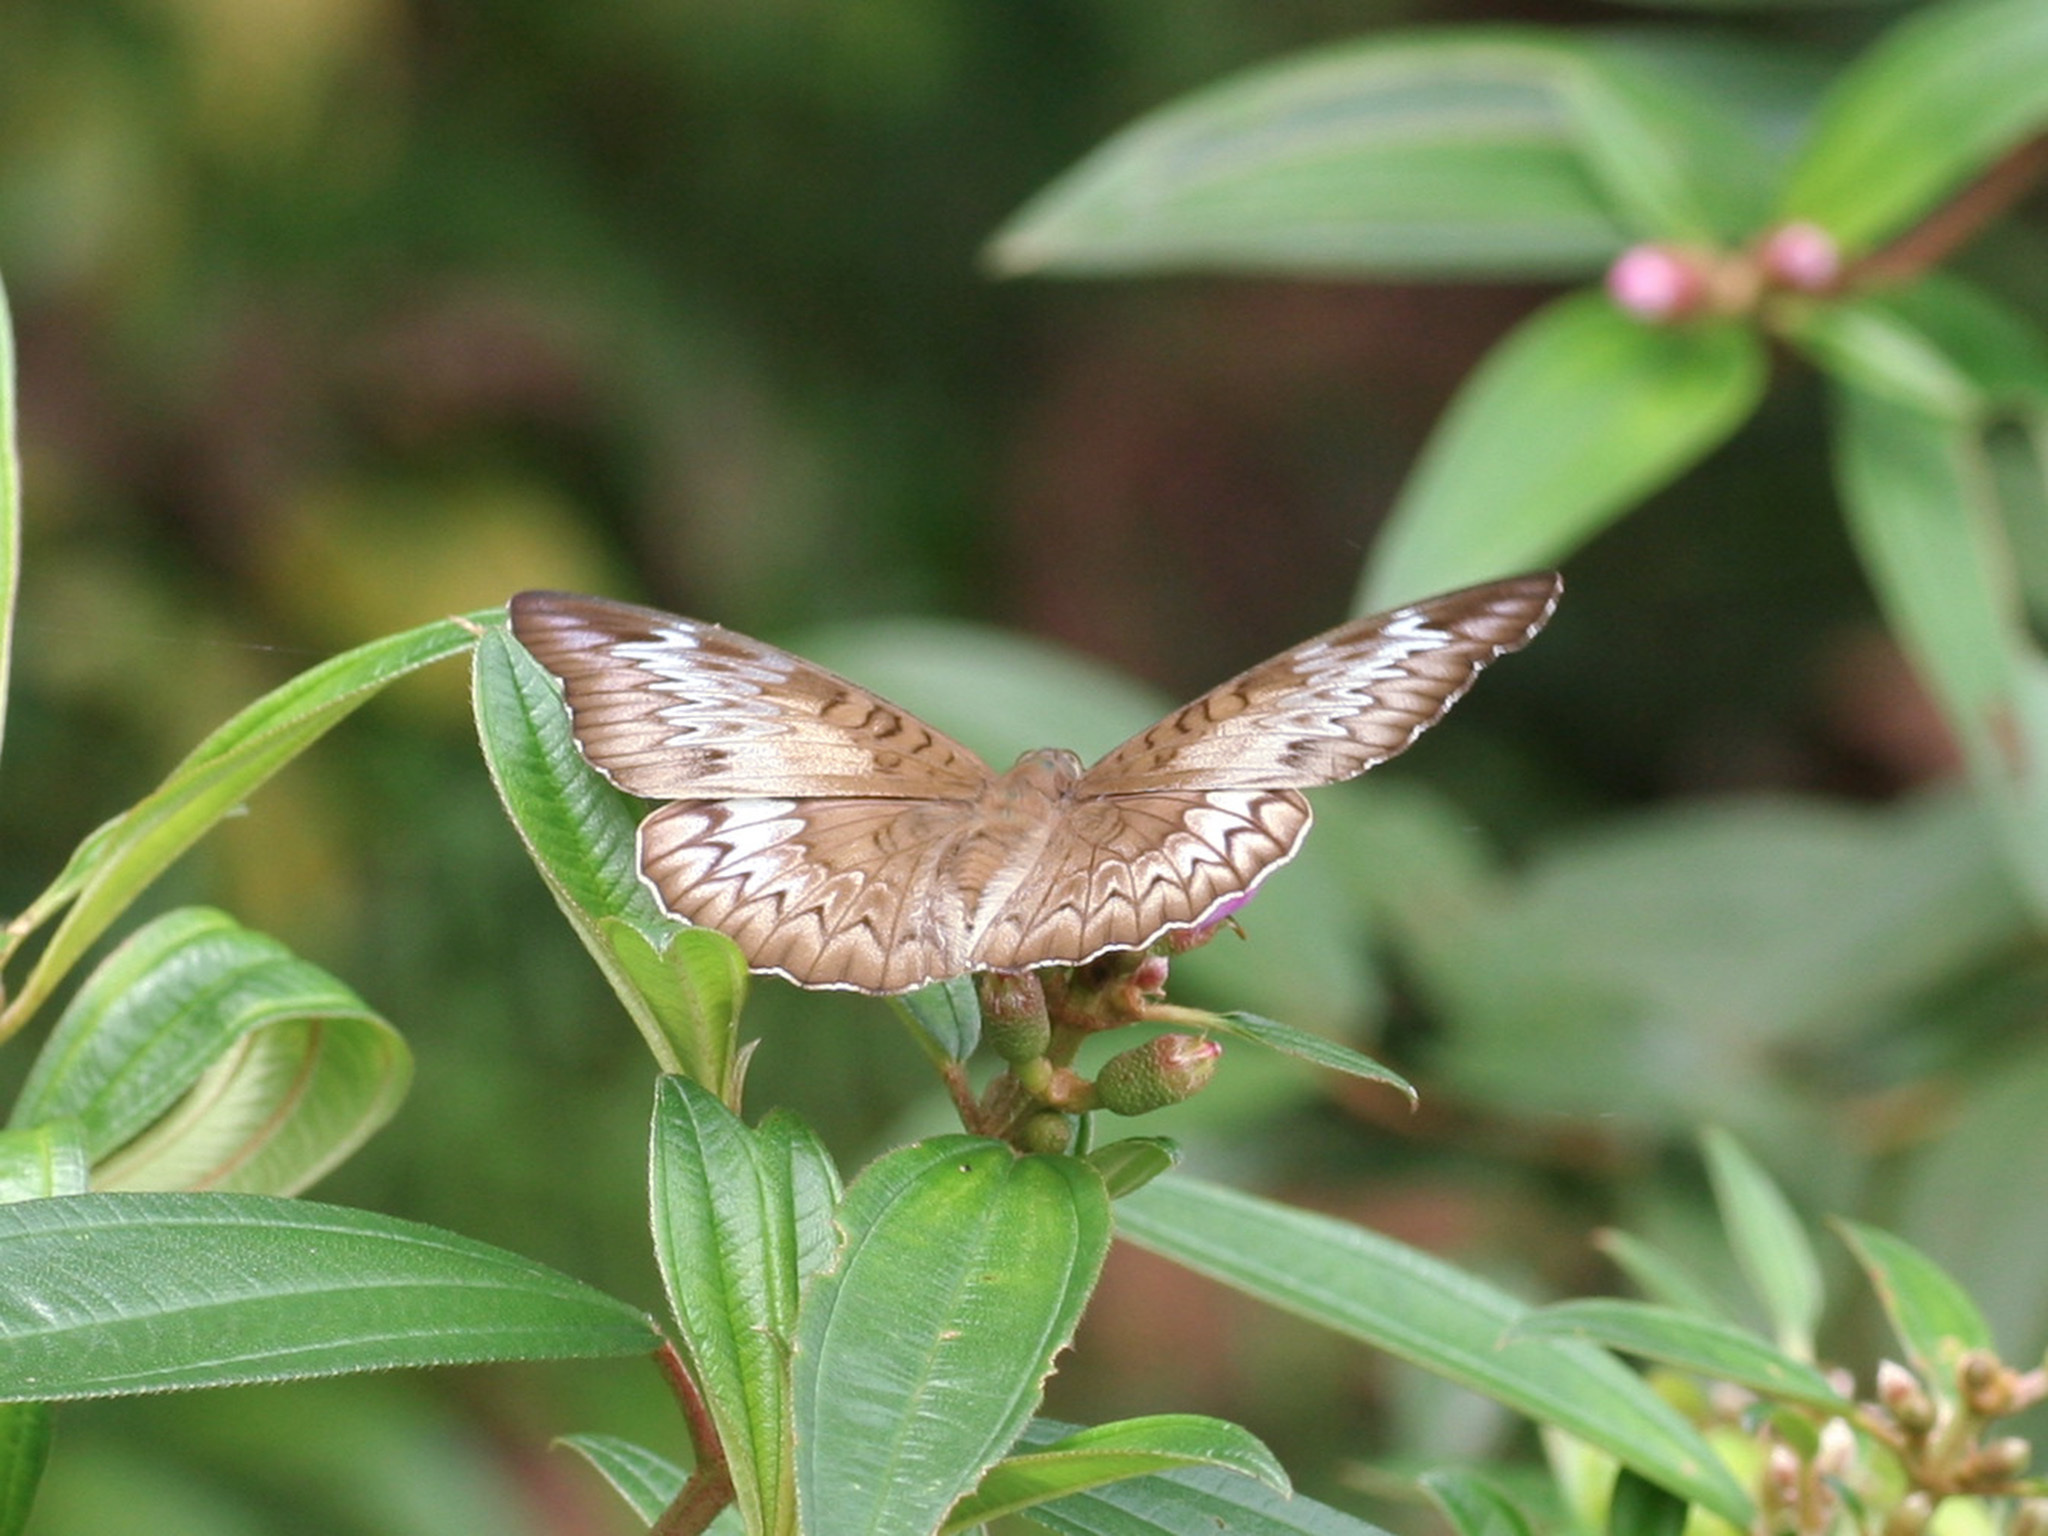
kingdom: Animalia
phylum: Arthropoda
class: Insecta
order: Lepidoptera
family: Nymphalidae
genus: Euthalia
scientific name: Euthalia monina
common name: Powdered baron
